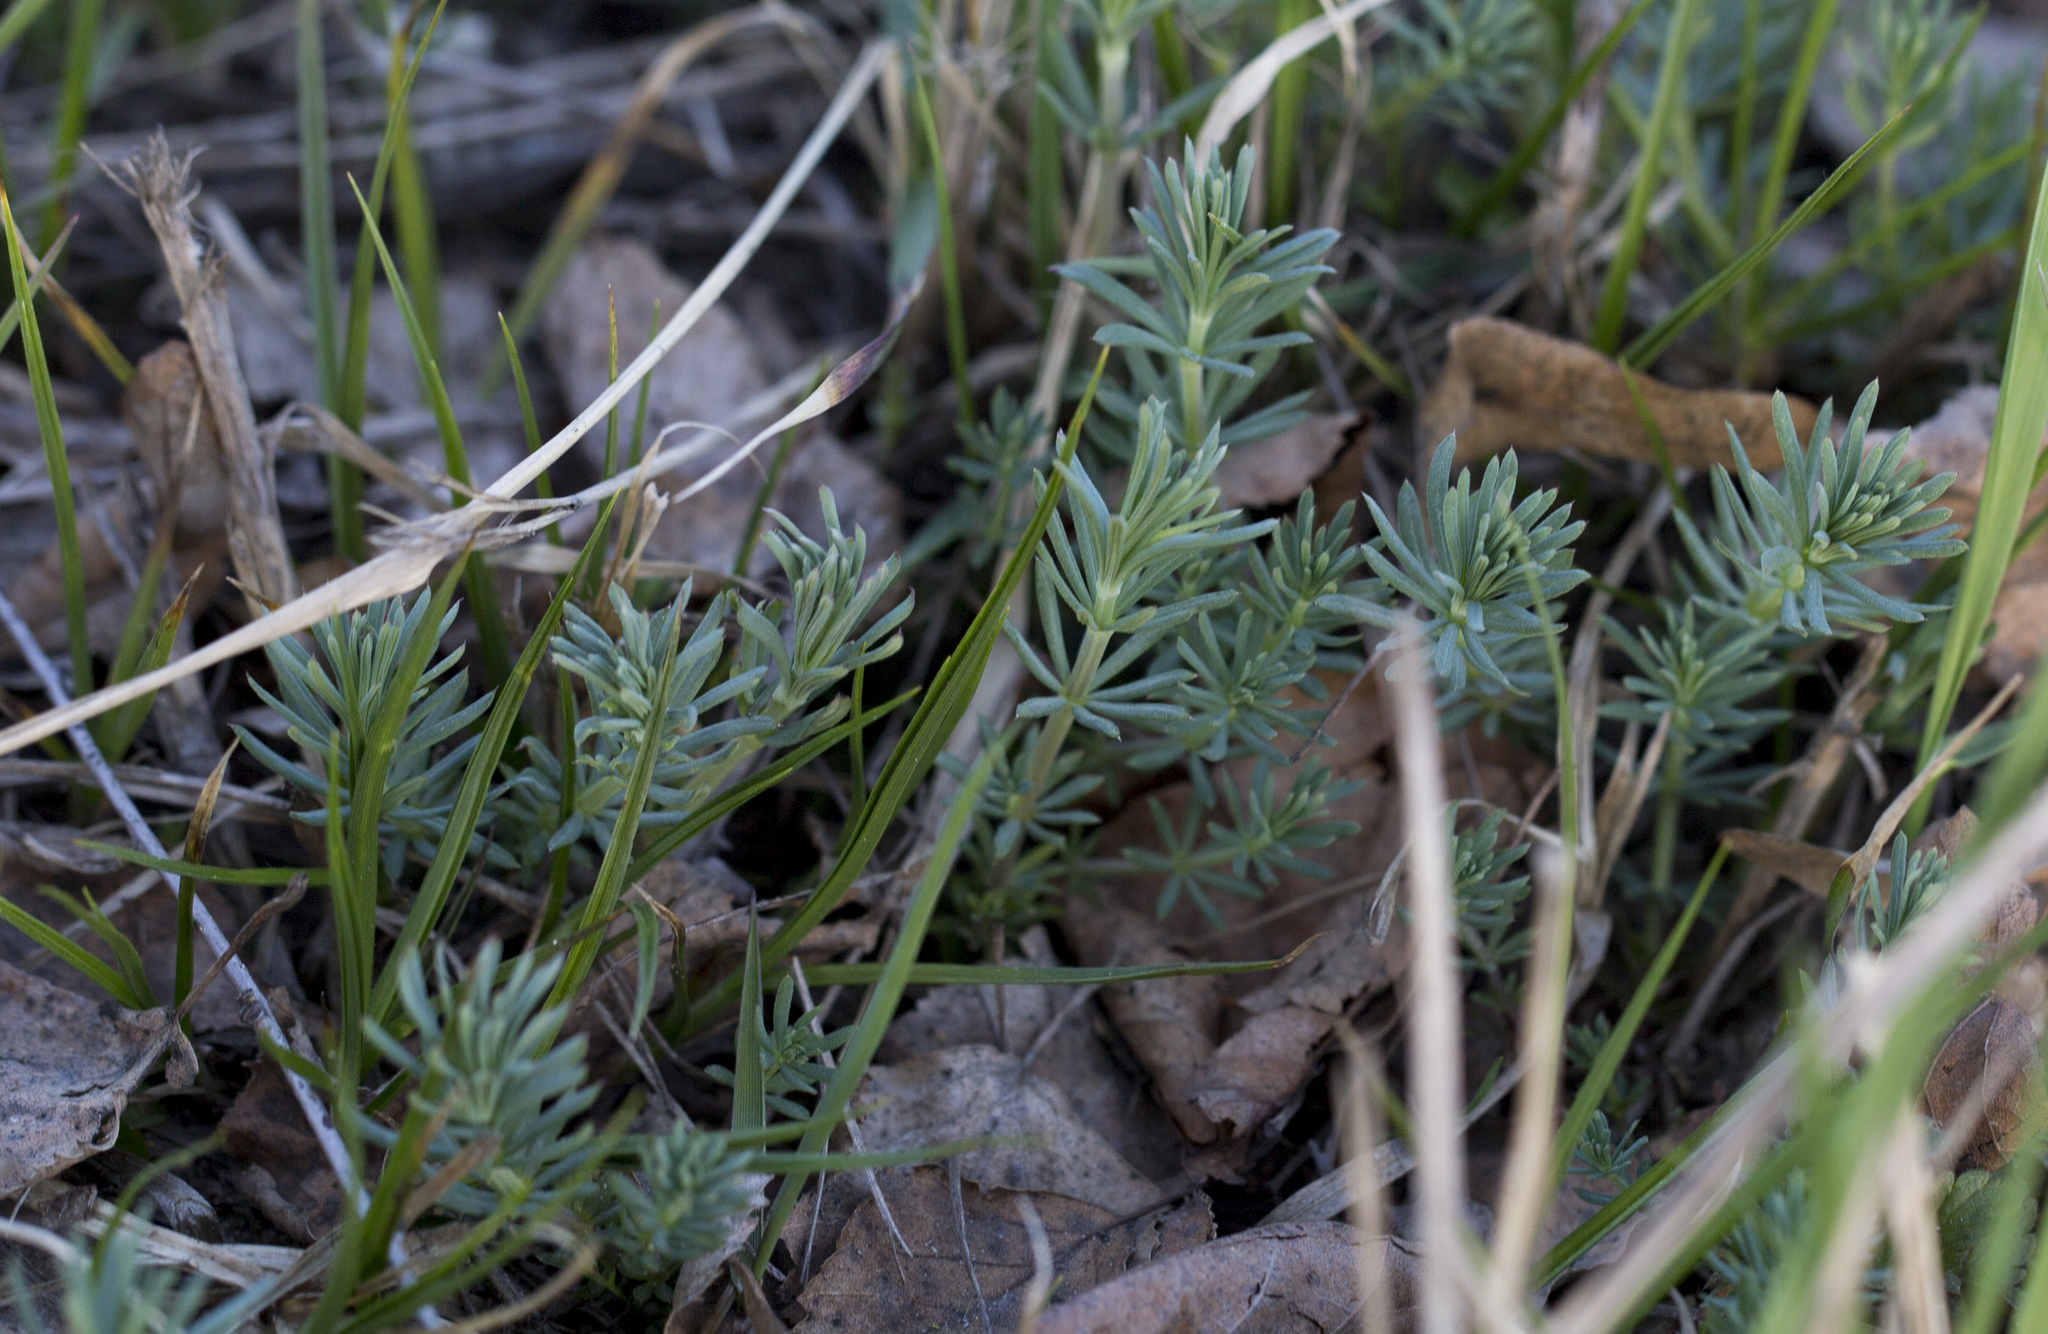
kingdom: Plantae
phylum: Tracheophyta
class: Magnoliopsida
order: Gentianales
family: Rubiaceae
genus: Galium
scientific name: Galium verum
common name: Lady's bedstraw
